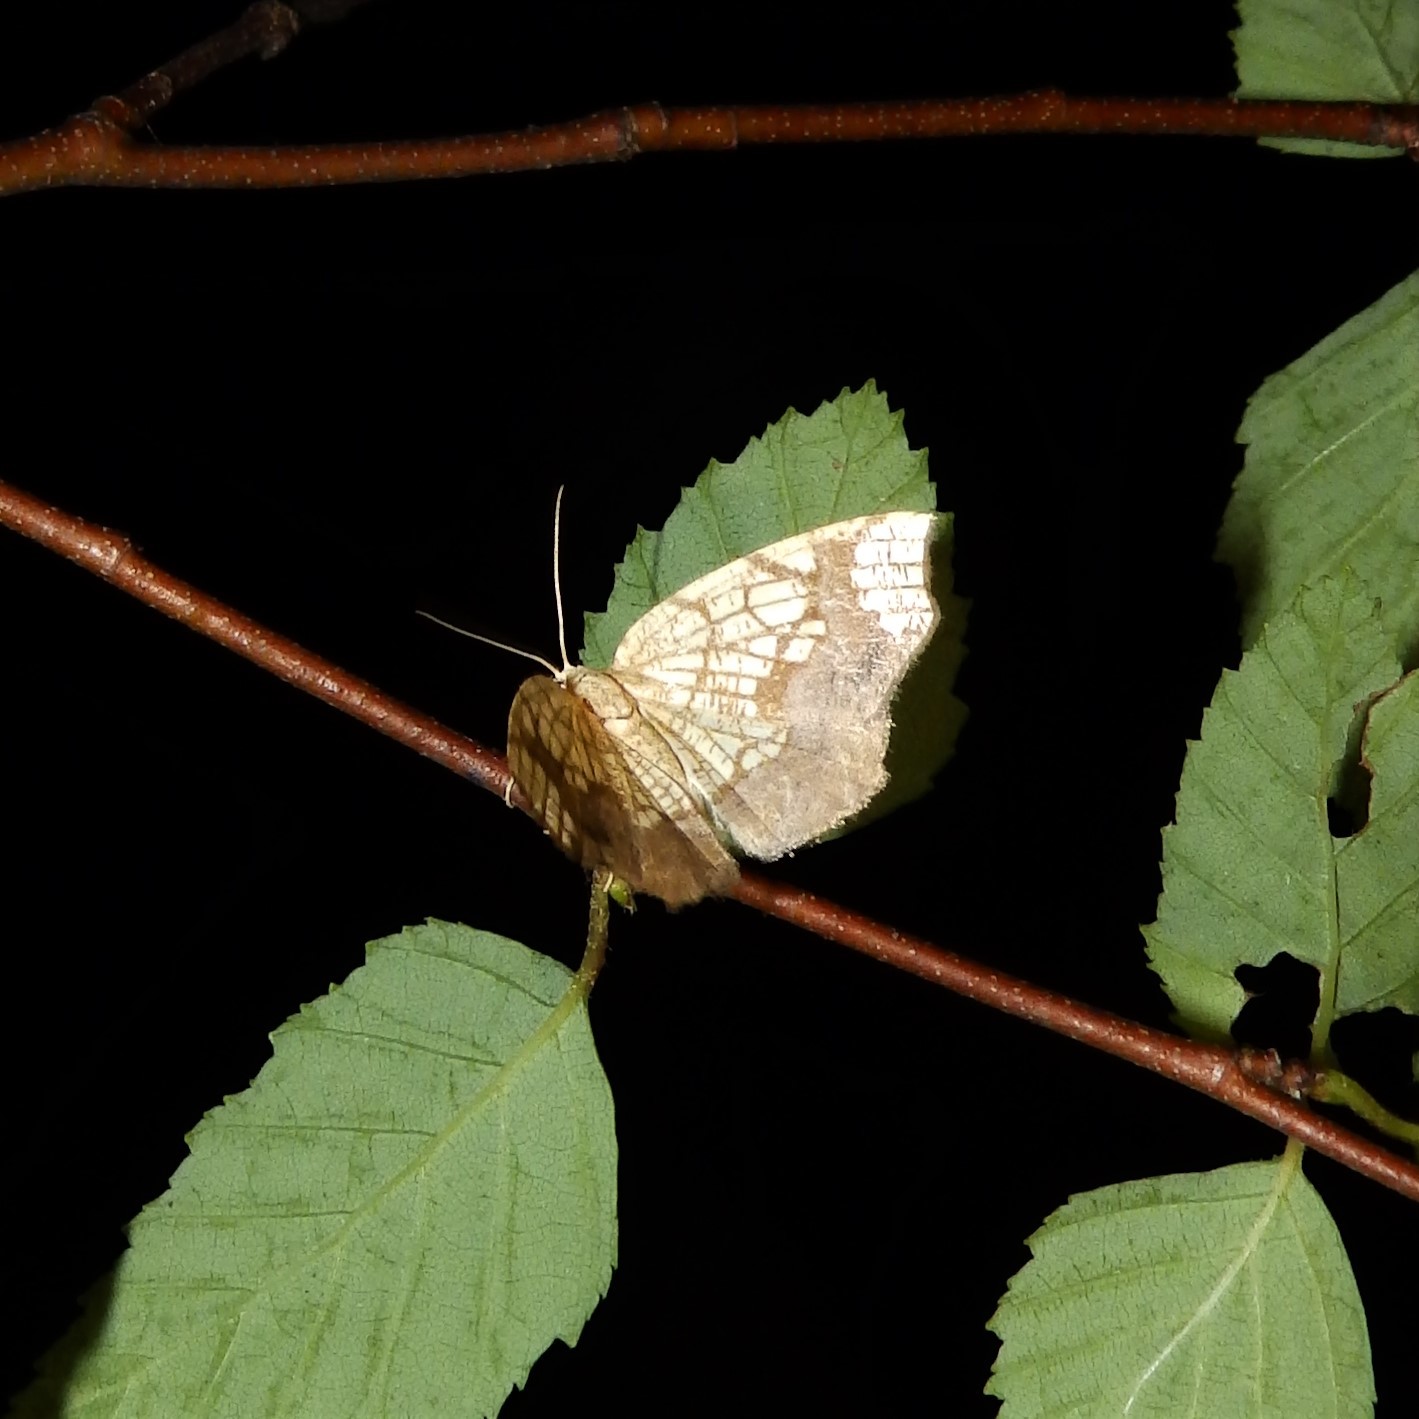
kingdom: Animalia
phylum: Arthropoda
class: Insecta
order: Lepidoptera
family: Geometridae
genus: Nematocampa
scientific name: Nematocampa resistaria
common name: Horned spanworm moth
